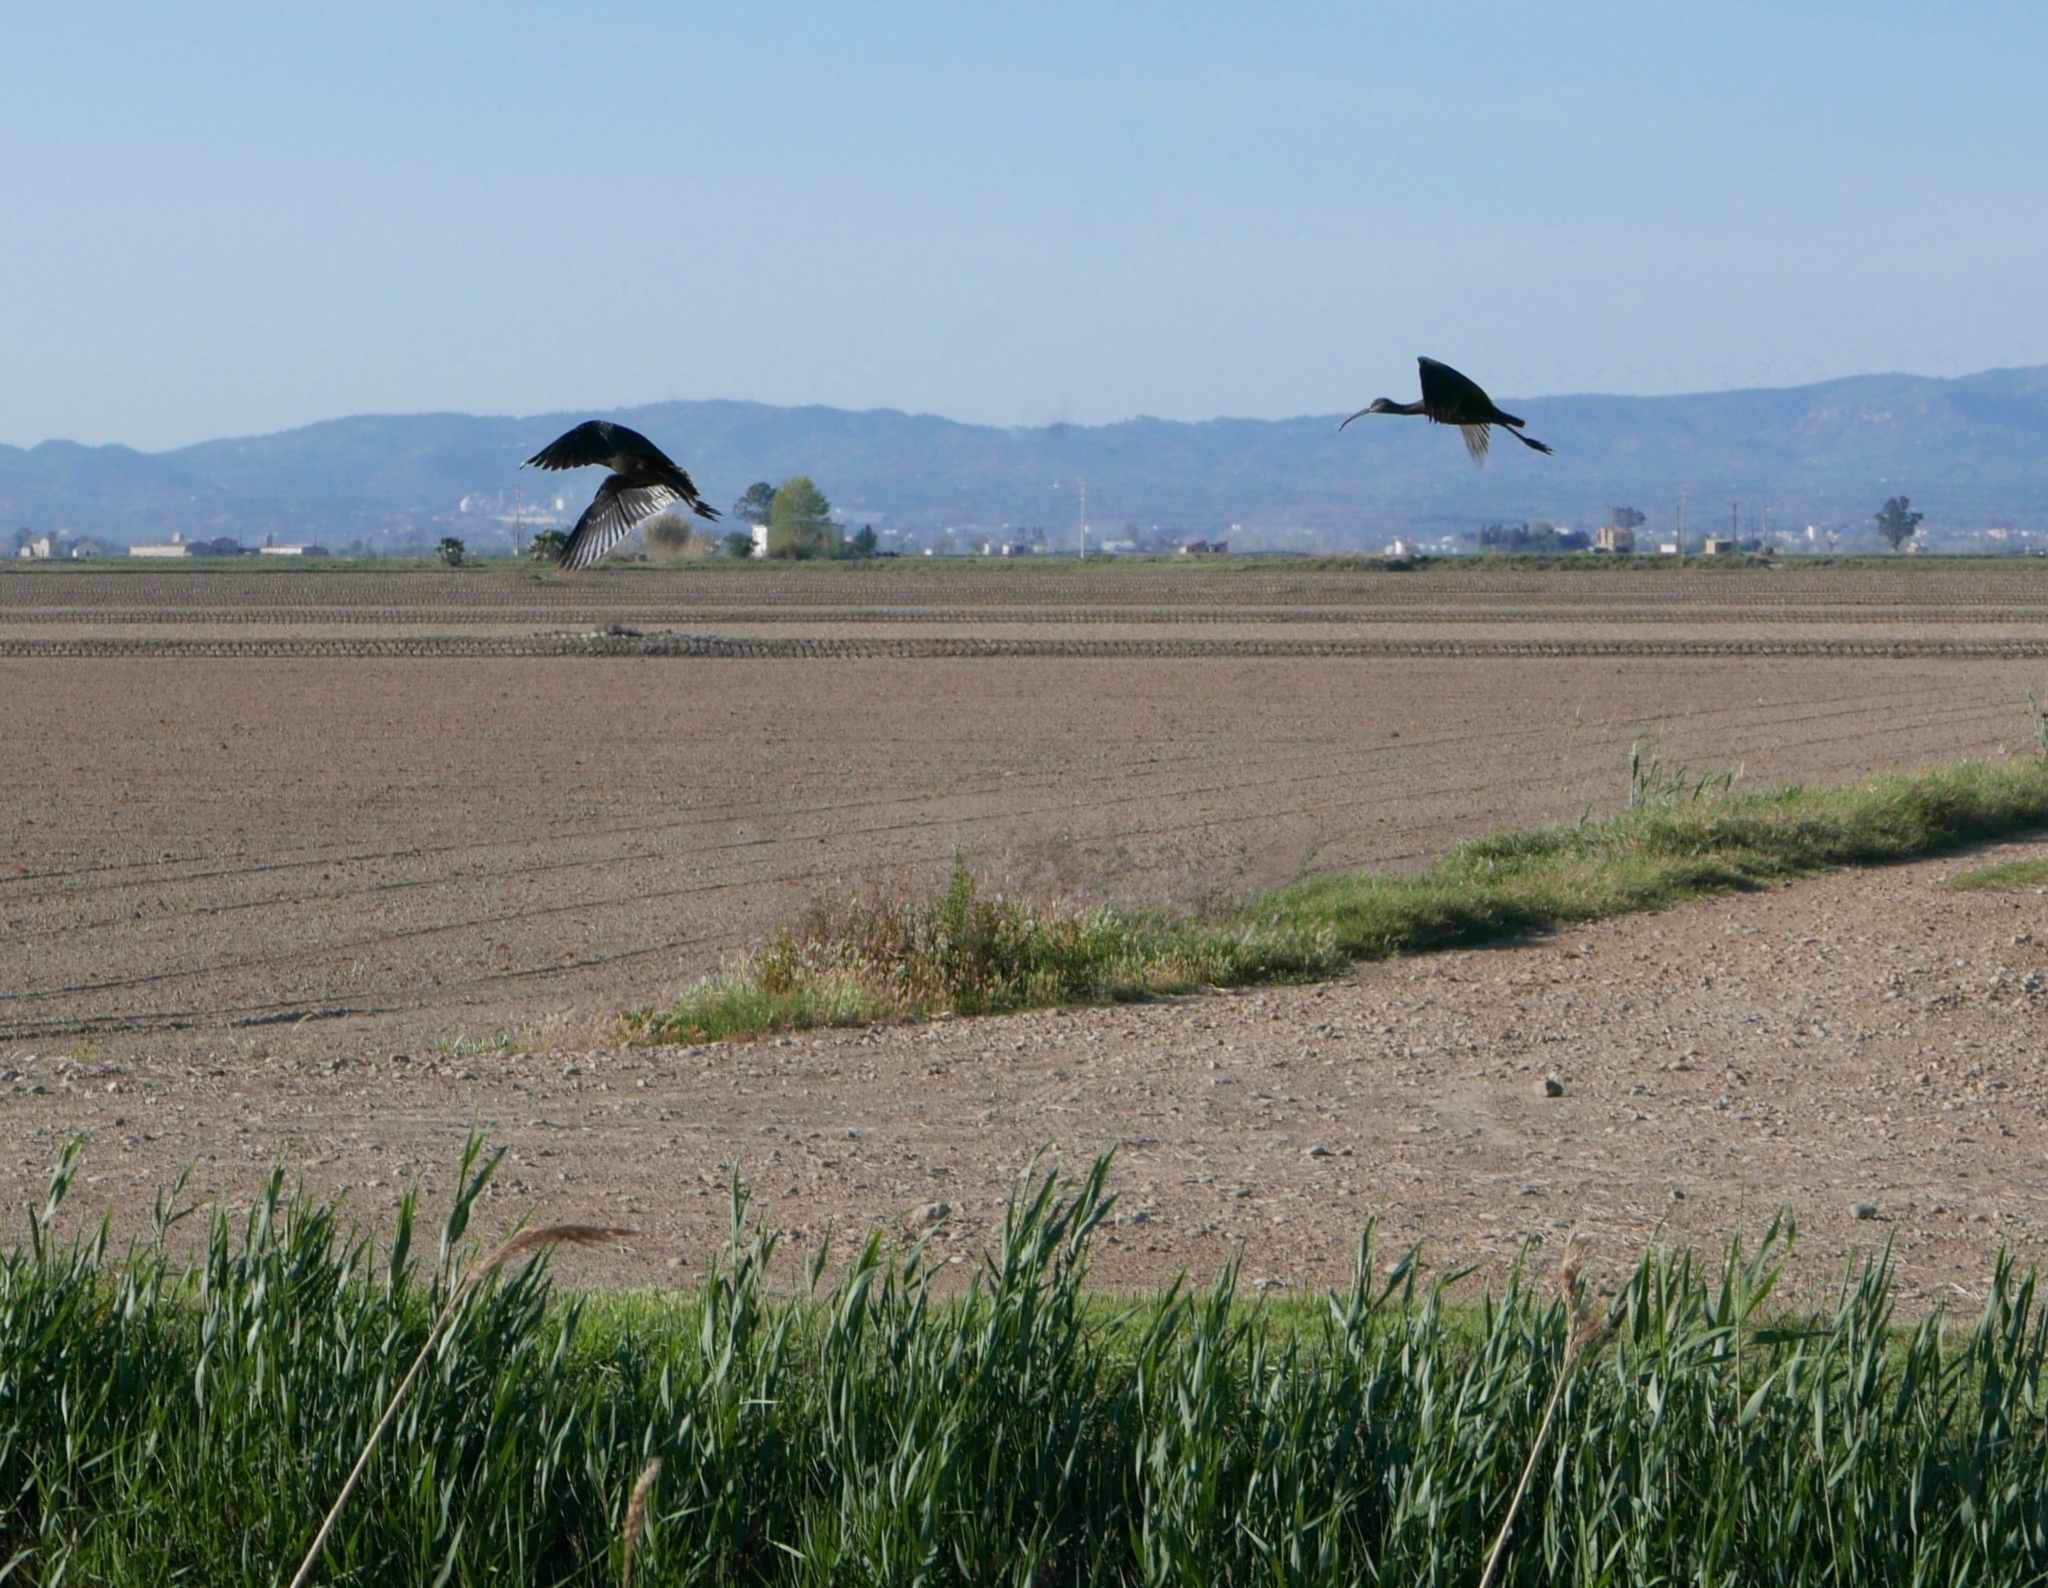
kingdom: Animalia
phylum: Chordata
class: Aves
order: Pelecaniformes
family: Threskiornithidae
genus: Plegadis
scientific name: Plegadis falcinellus
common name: Glossy ibis
